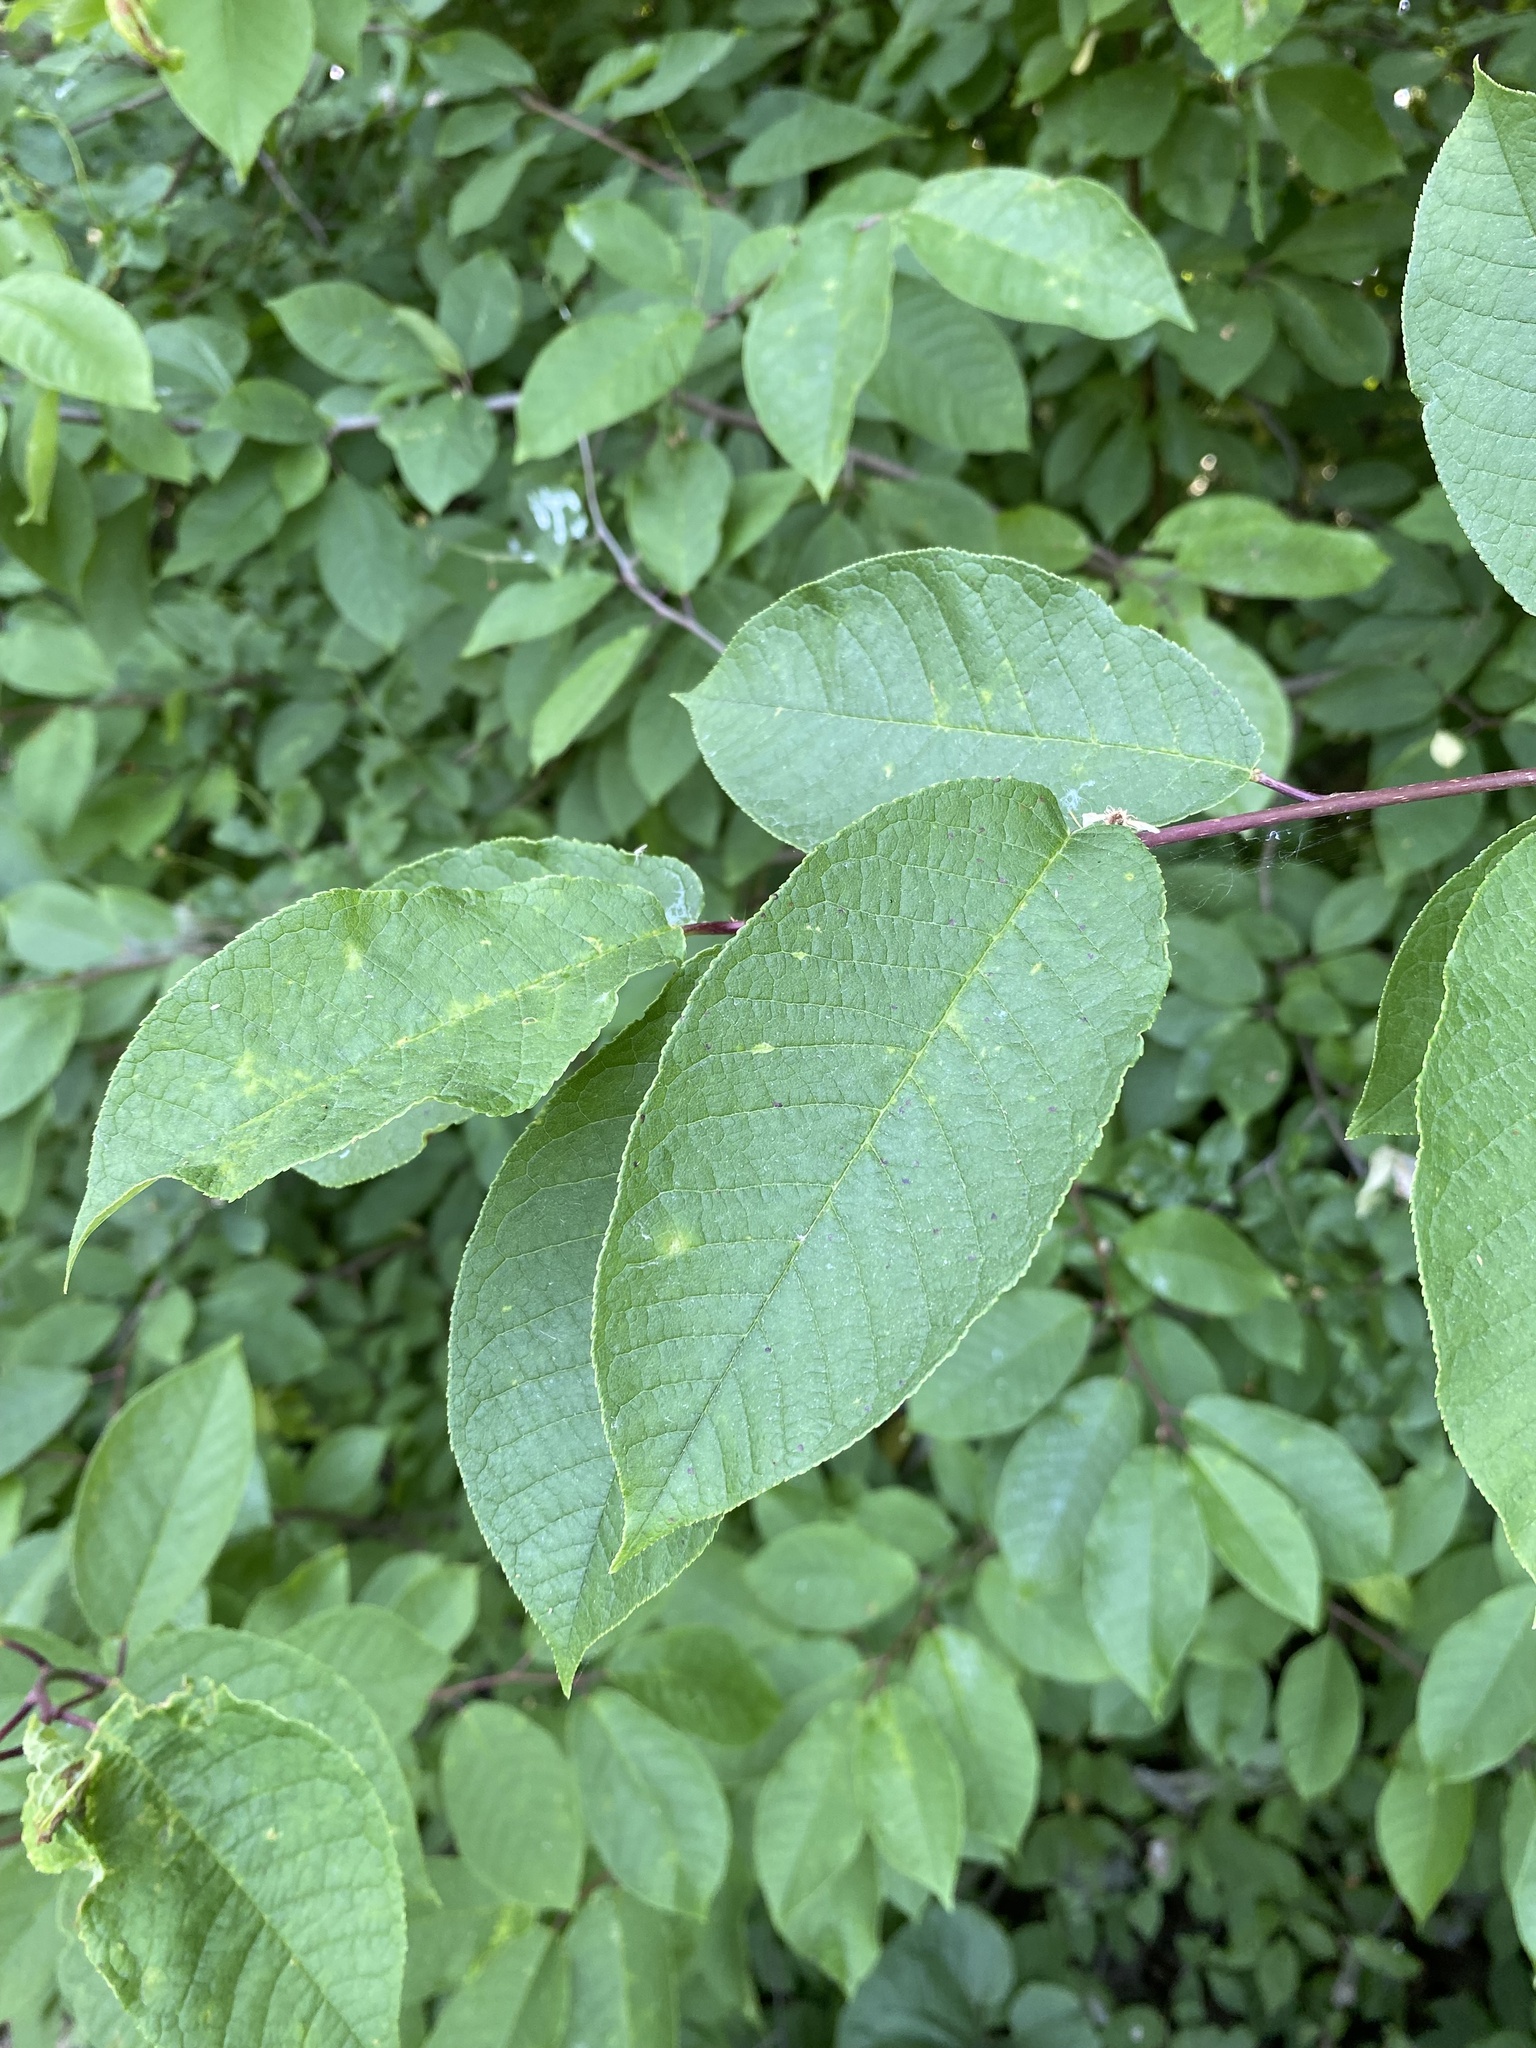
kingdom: Plantae
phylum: Tracheophyta
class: Magnoliopsida
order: Rosales
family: Rosaceae
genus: Prunus
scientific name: Prunus padus
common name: Bird cherry
